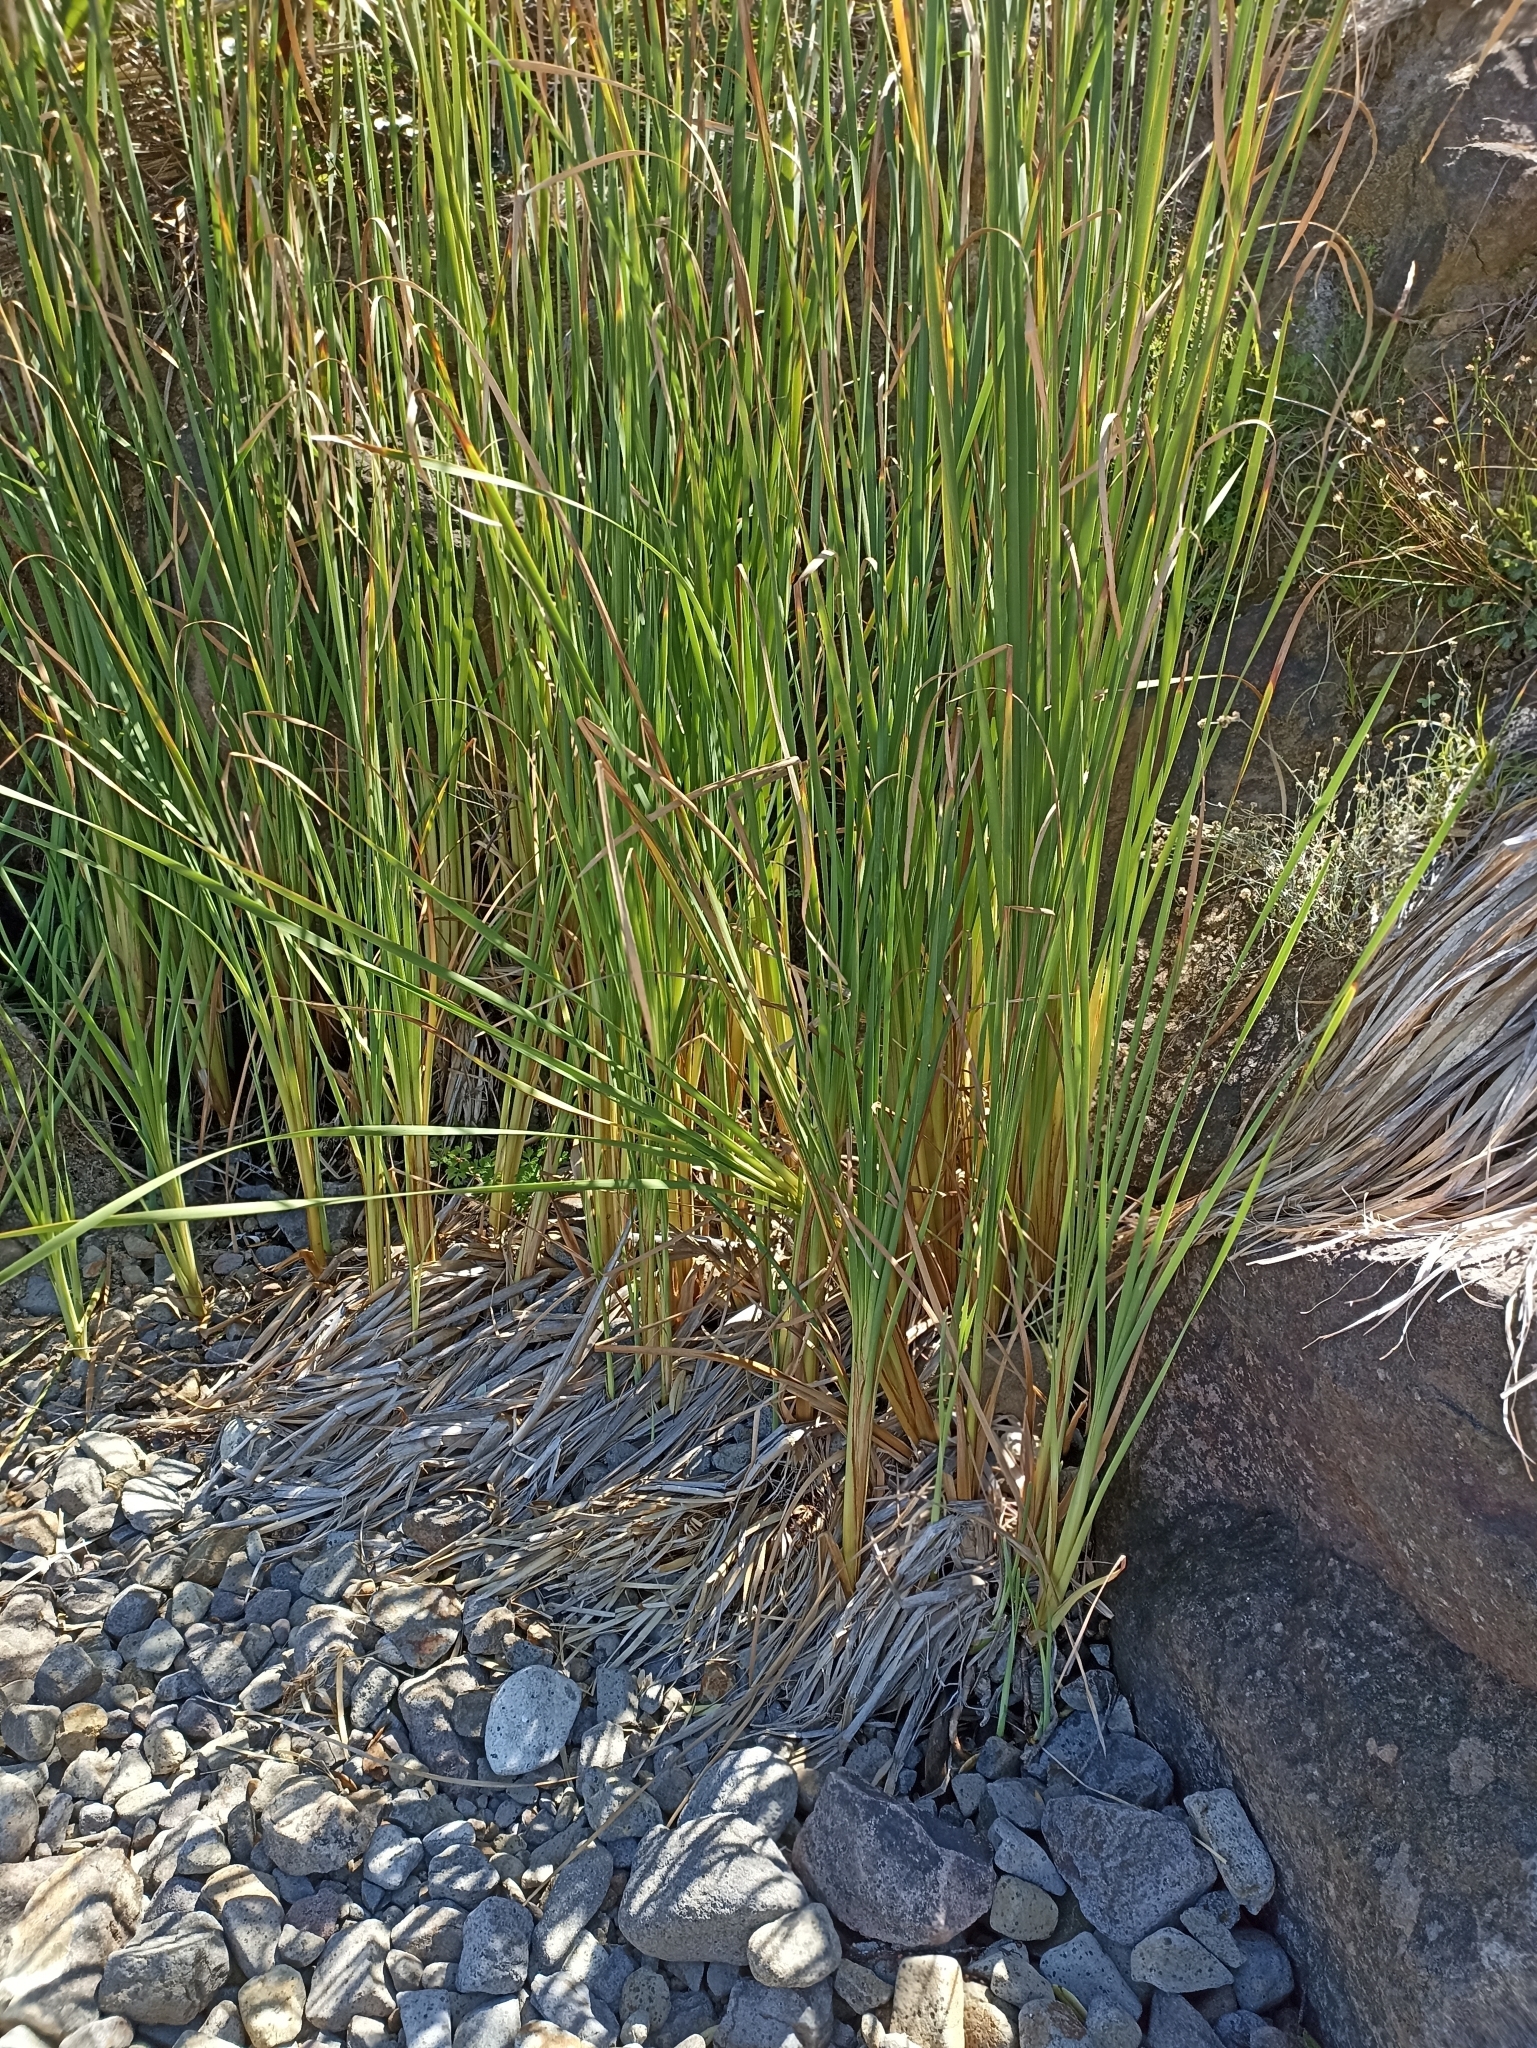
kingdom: Plantae
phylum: Tracheophyta
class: Liliopsida
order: Poales
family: Typhaceae
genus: Typha
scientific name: Typha orientalis
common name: Bullrush
